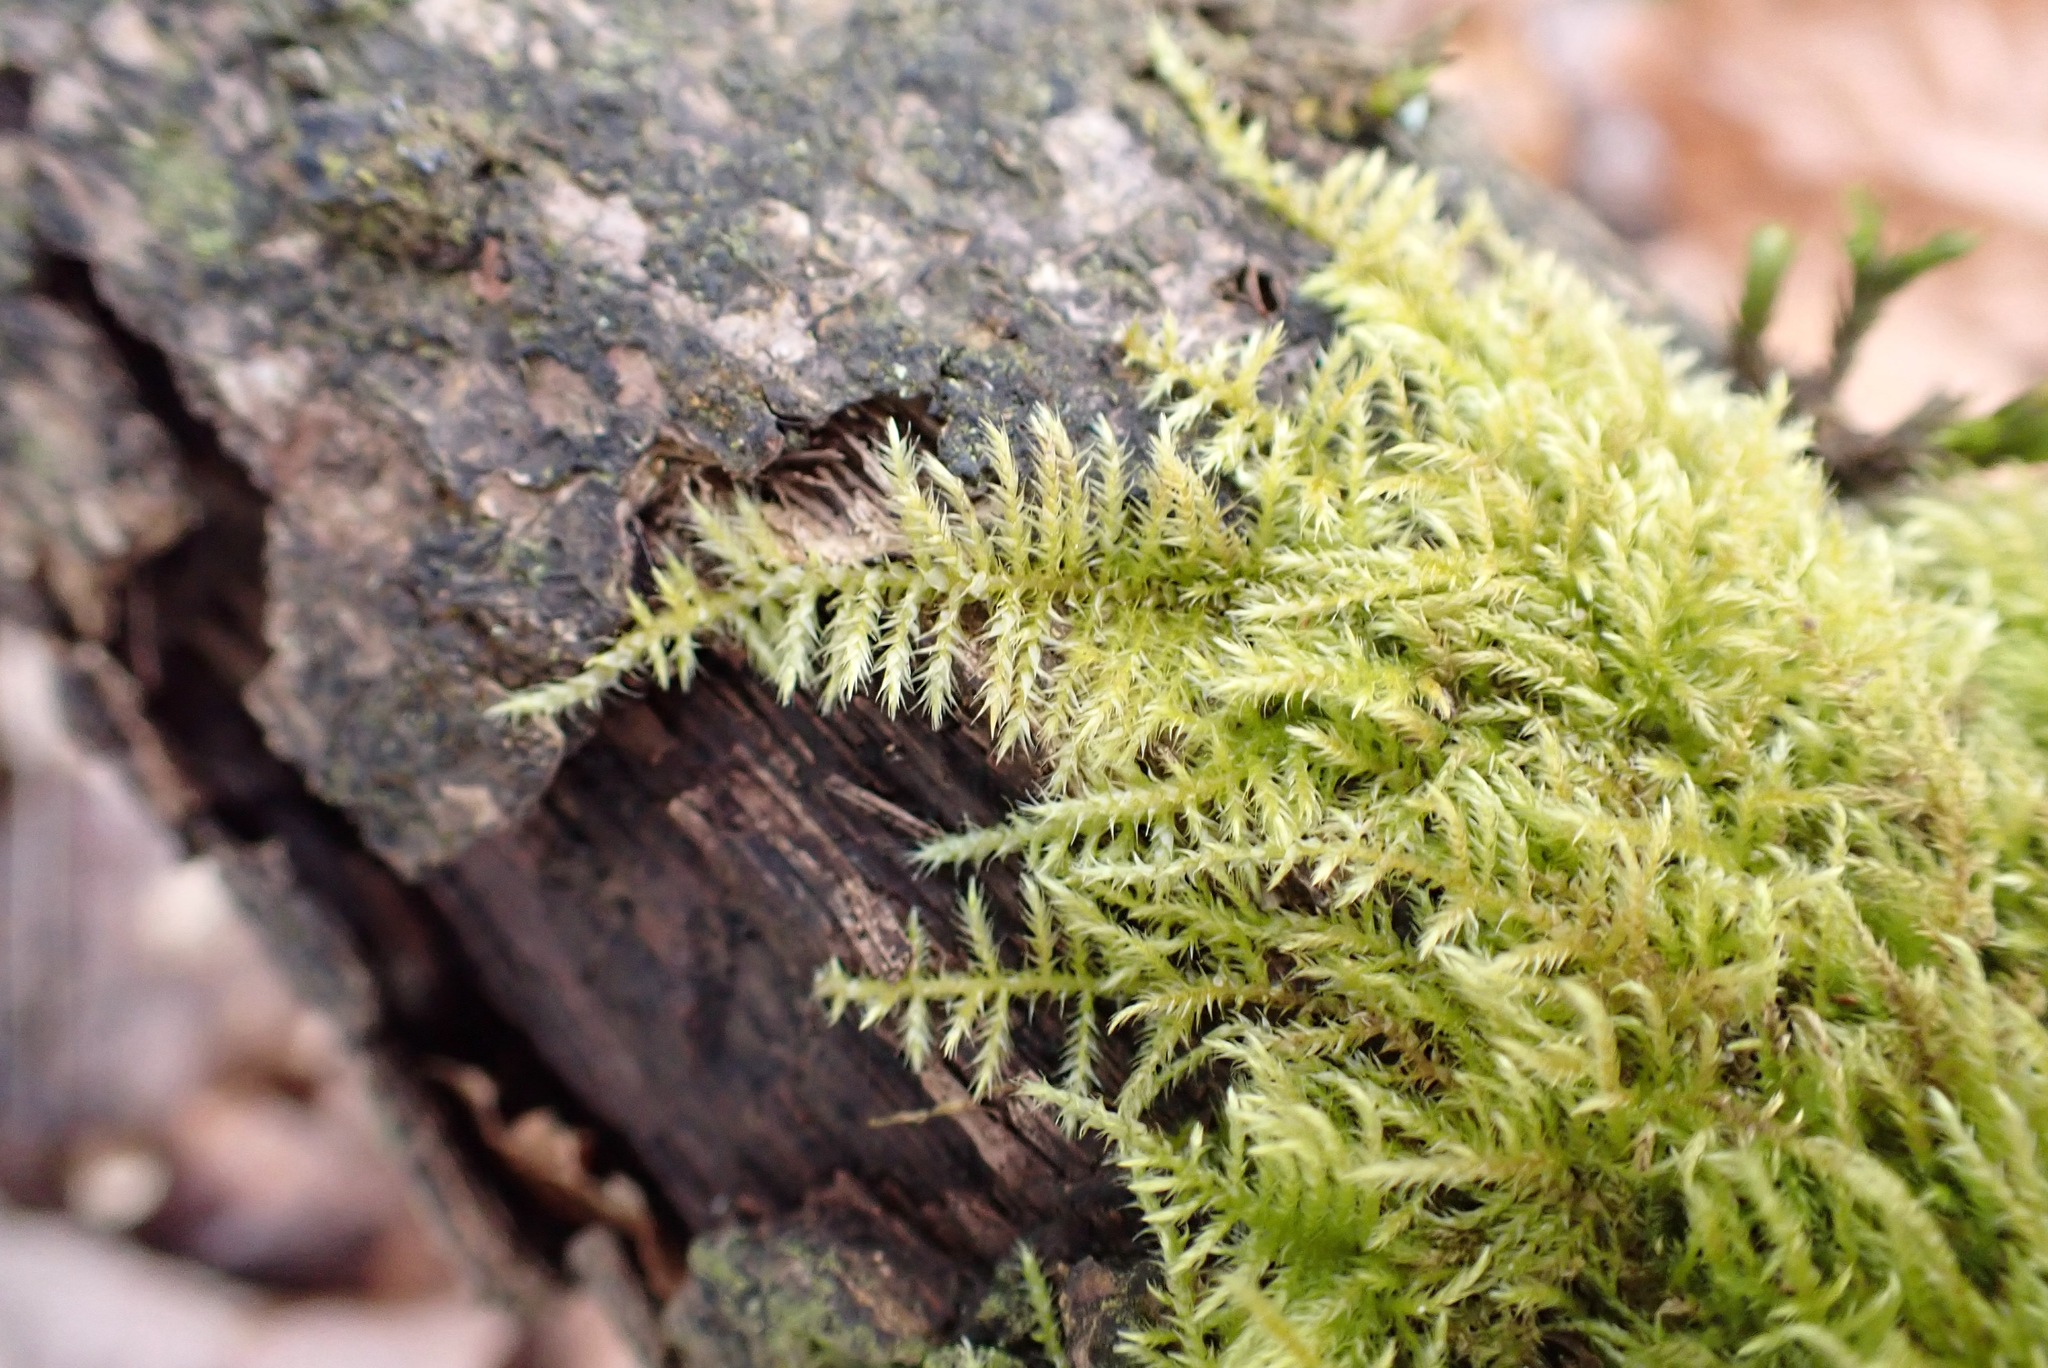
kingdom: Plantae
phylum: Bryophyta
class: Bryopsida
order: Hypnales
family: Brachytheciaceae
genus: Kindbergia
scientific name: Kindbergia praelonga
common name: Slender beaked moss
